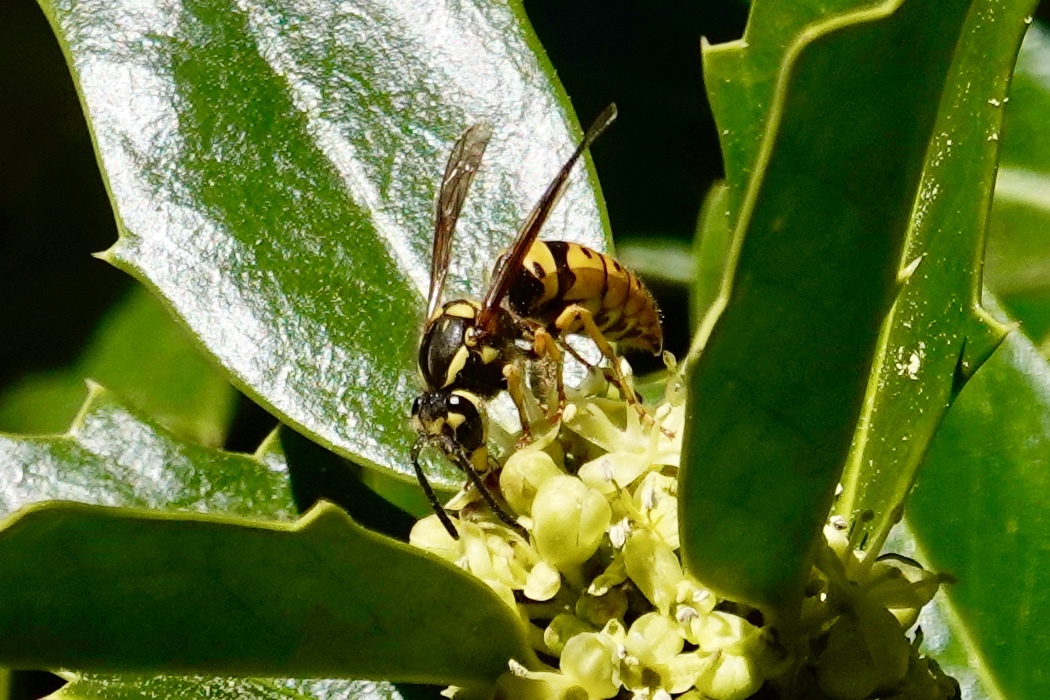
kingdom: Animalia
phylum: Arthropoda
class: Insecta
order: Hymenoptera
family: Vespidae
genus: Vespula
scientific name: Vespula maculifrons
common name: Eastern yellowjacket
